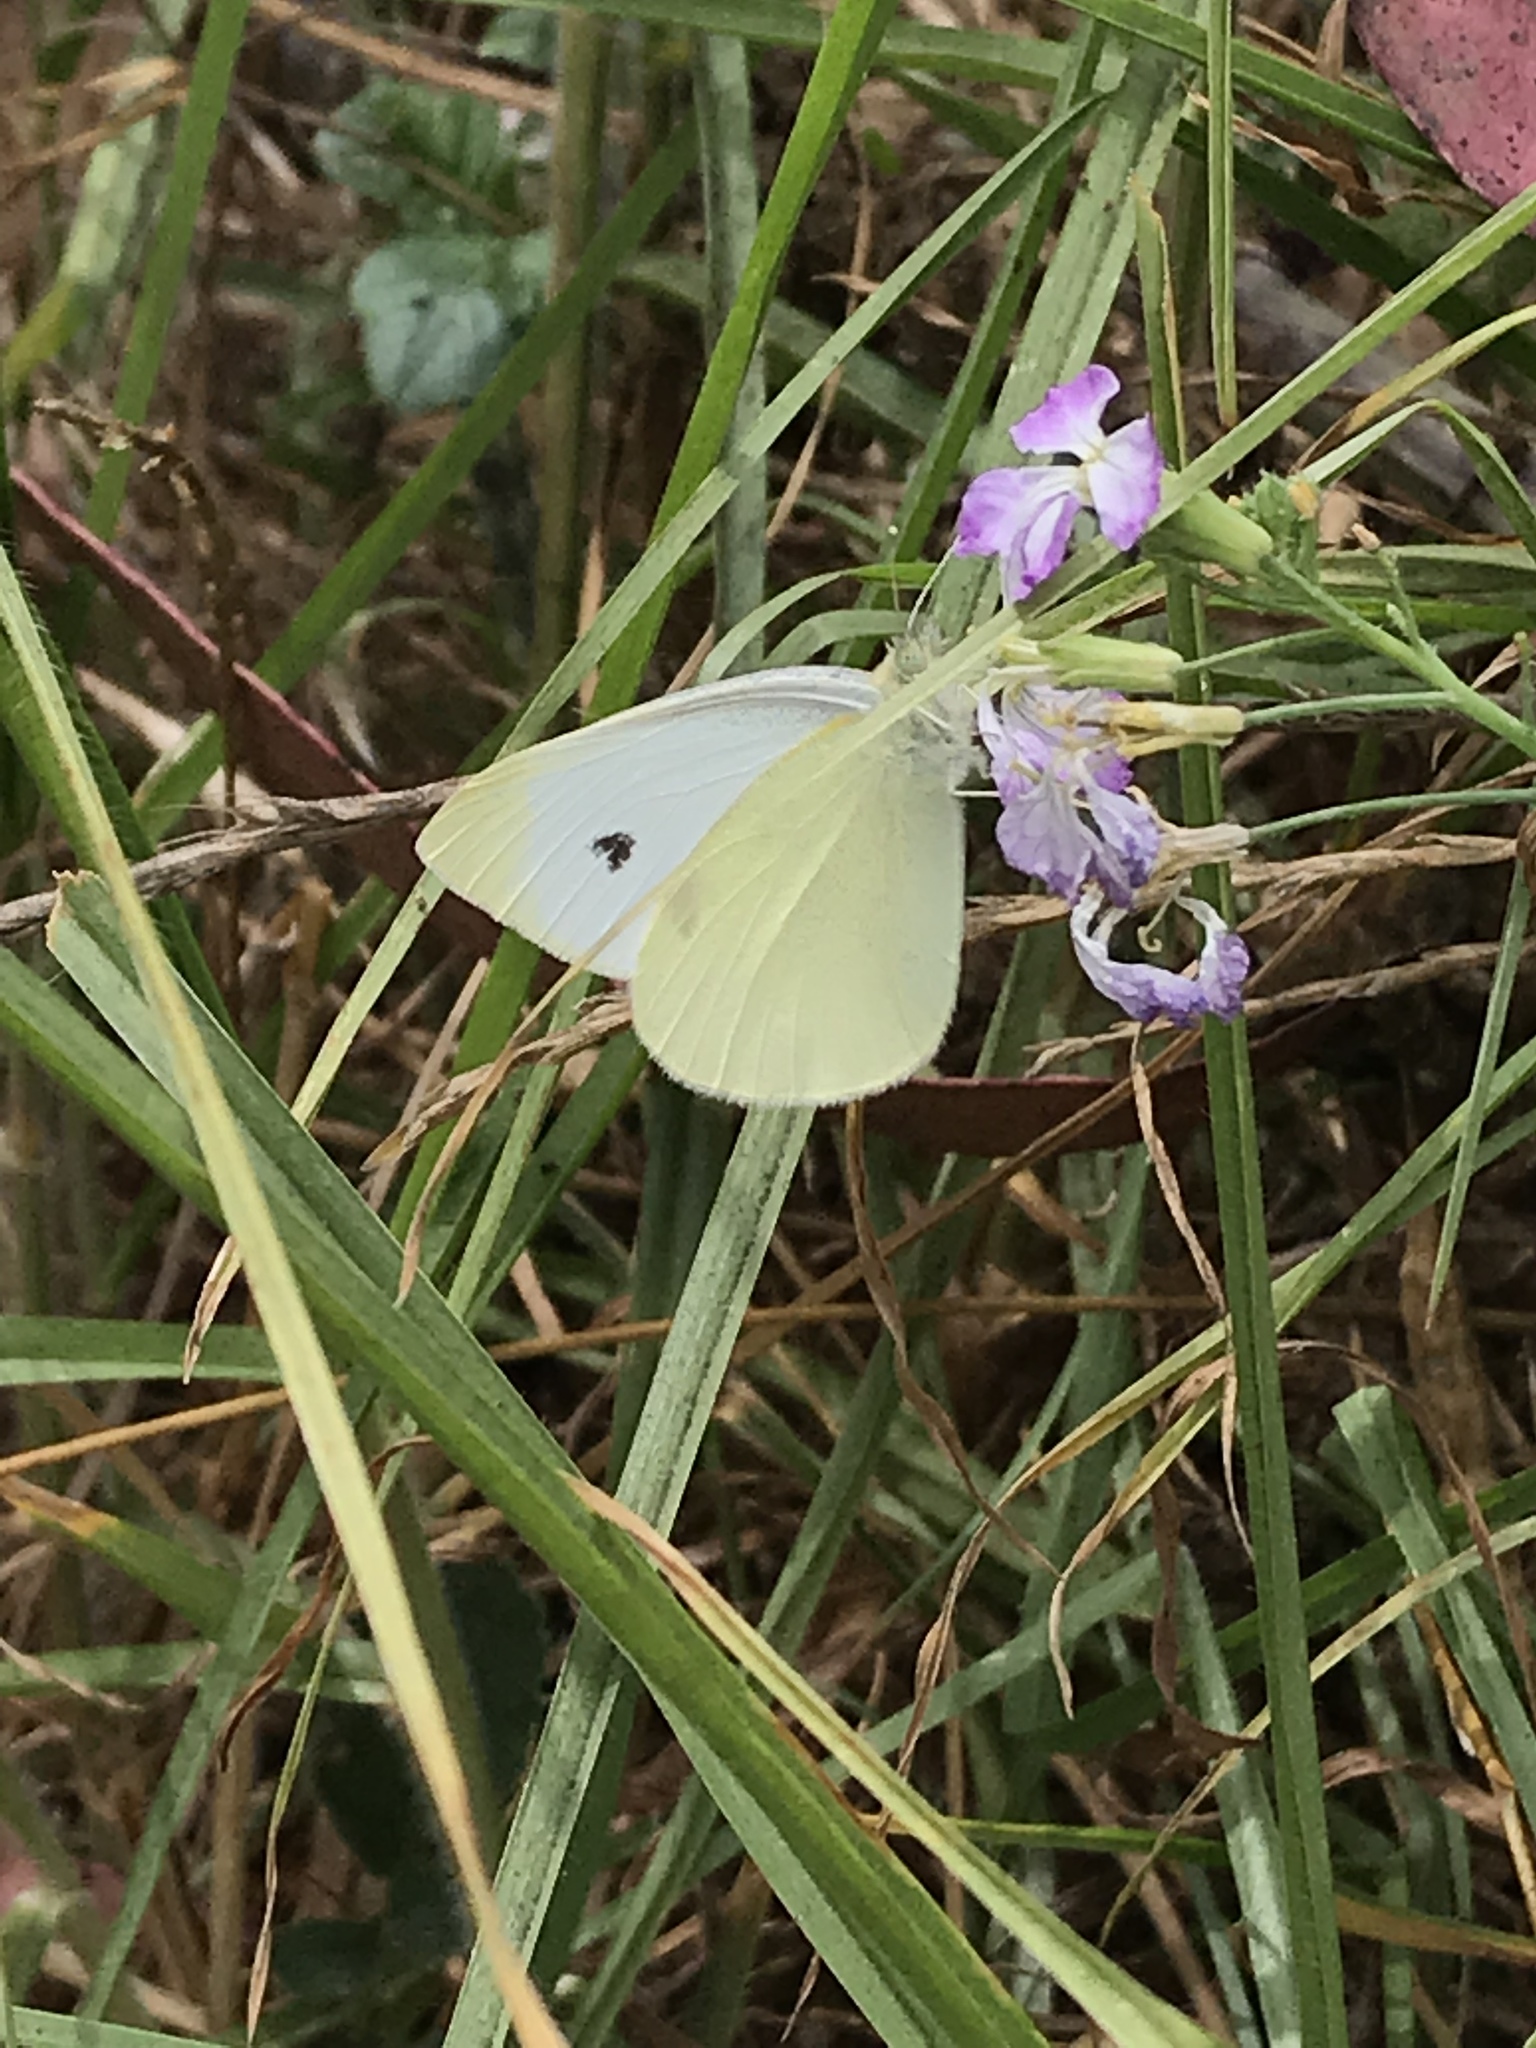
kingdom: Animalia
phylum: Arthropoda
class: Insecta
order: Lepidoptera
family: Pieridae
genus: Pieris
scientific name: Pieris rapae
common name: Small white
